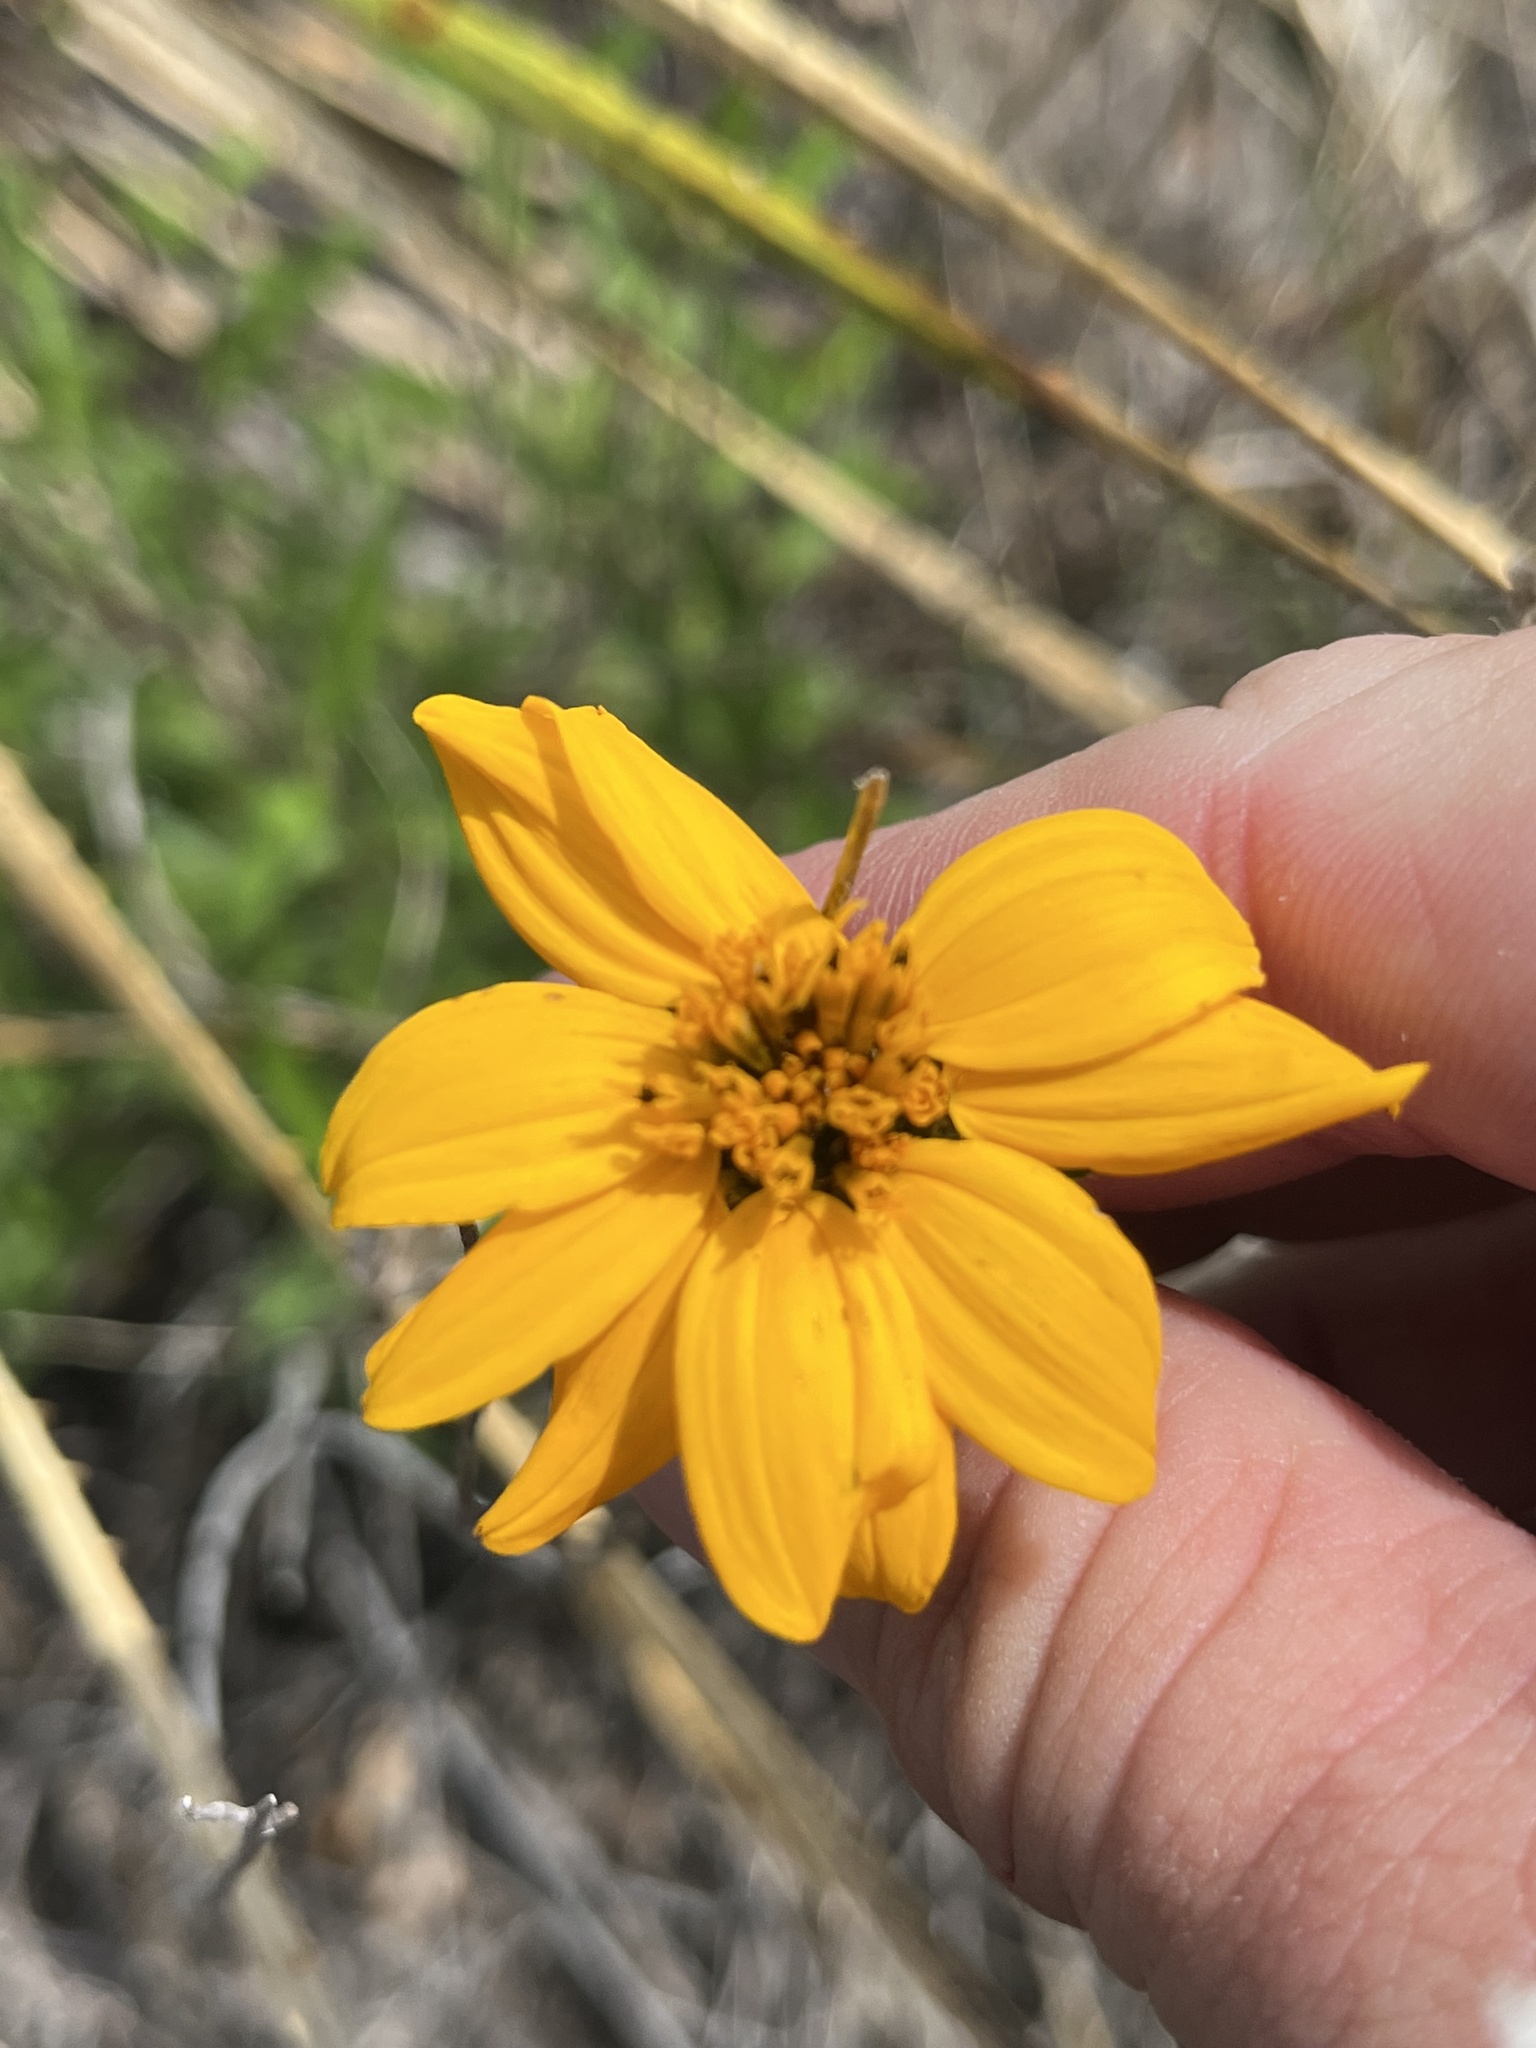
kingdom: Plantae
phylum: Tracheophyta
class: Magnoliopsida
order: Asterales
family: Asteraceae
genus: Wedelia
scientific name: Wedelia acapulcensis
